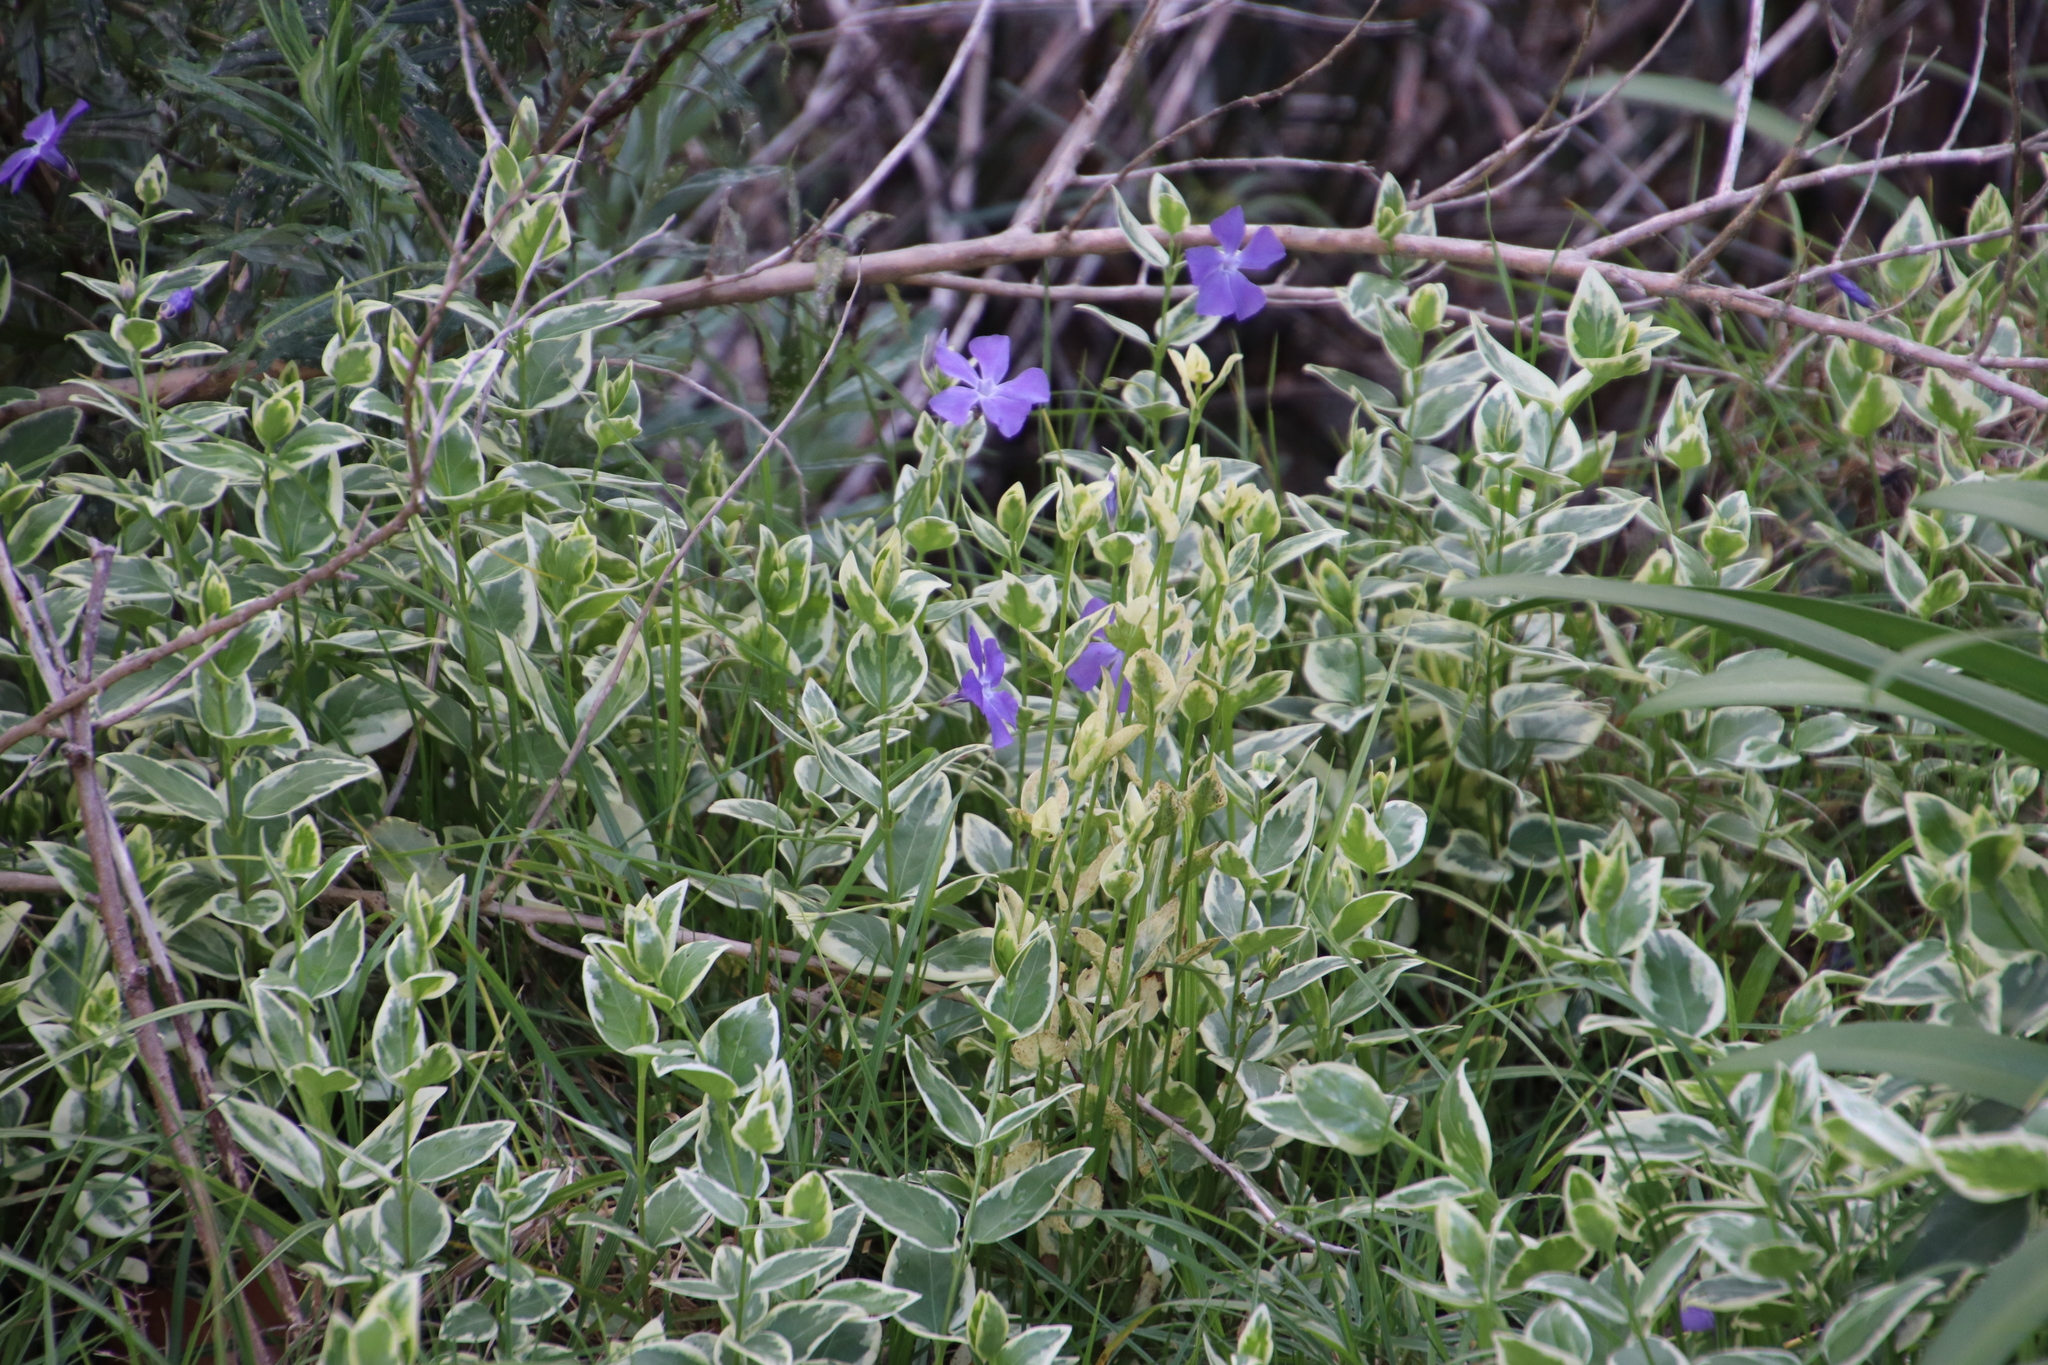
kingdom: Plantae
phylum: Tracheophyta
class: Magnoliopsida
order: Gentianales
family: Apocynaceae
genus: Vinca
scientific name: Vinca major
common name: Greater periwinkle
